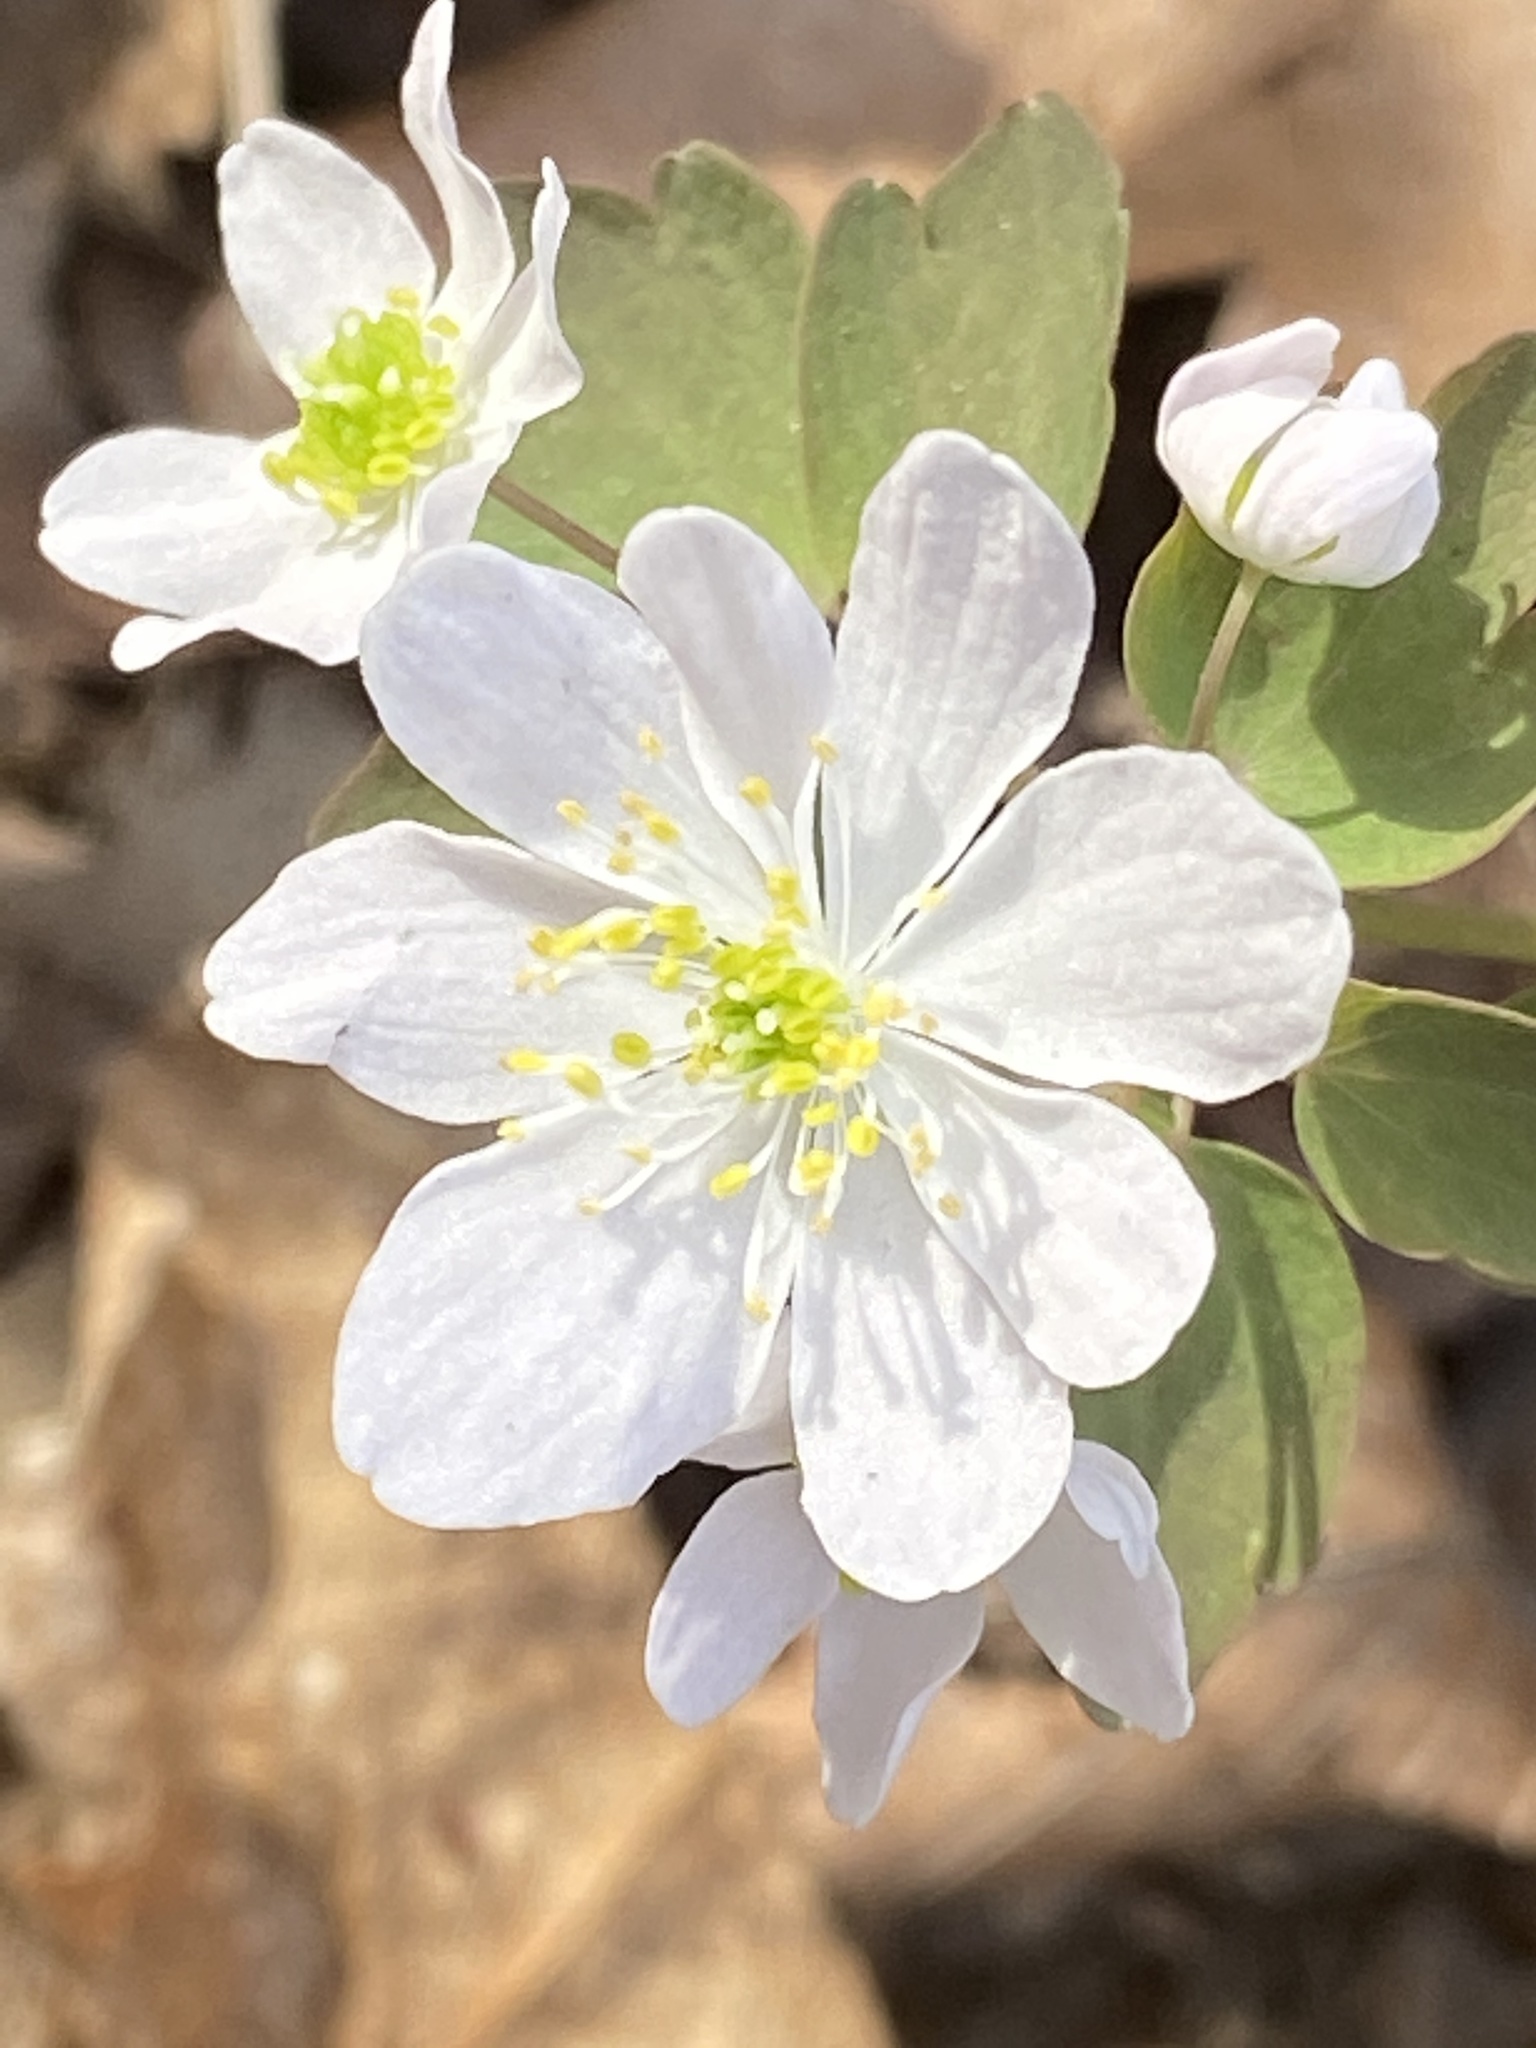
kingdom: Plantae
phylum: Tracheophyta
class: Magnoliopsida
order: Ranunculales
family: Ranunculaceae
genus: Thalictrum
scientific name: Thalictrum thalictroides
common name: Rue-anemone
